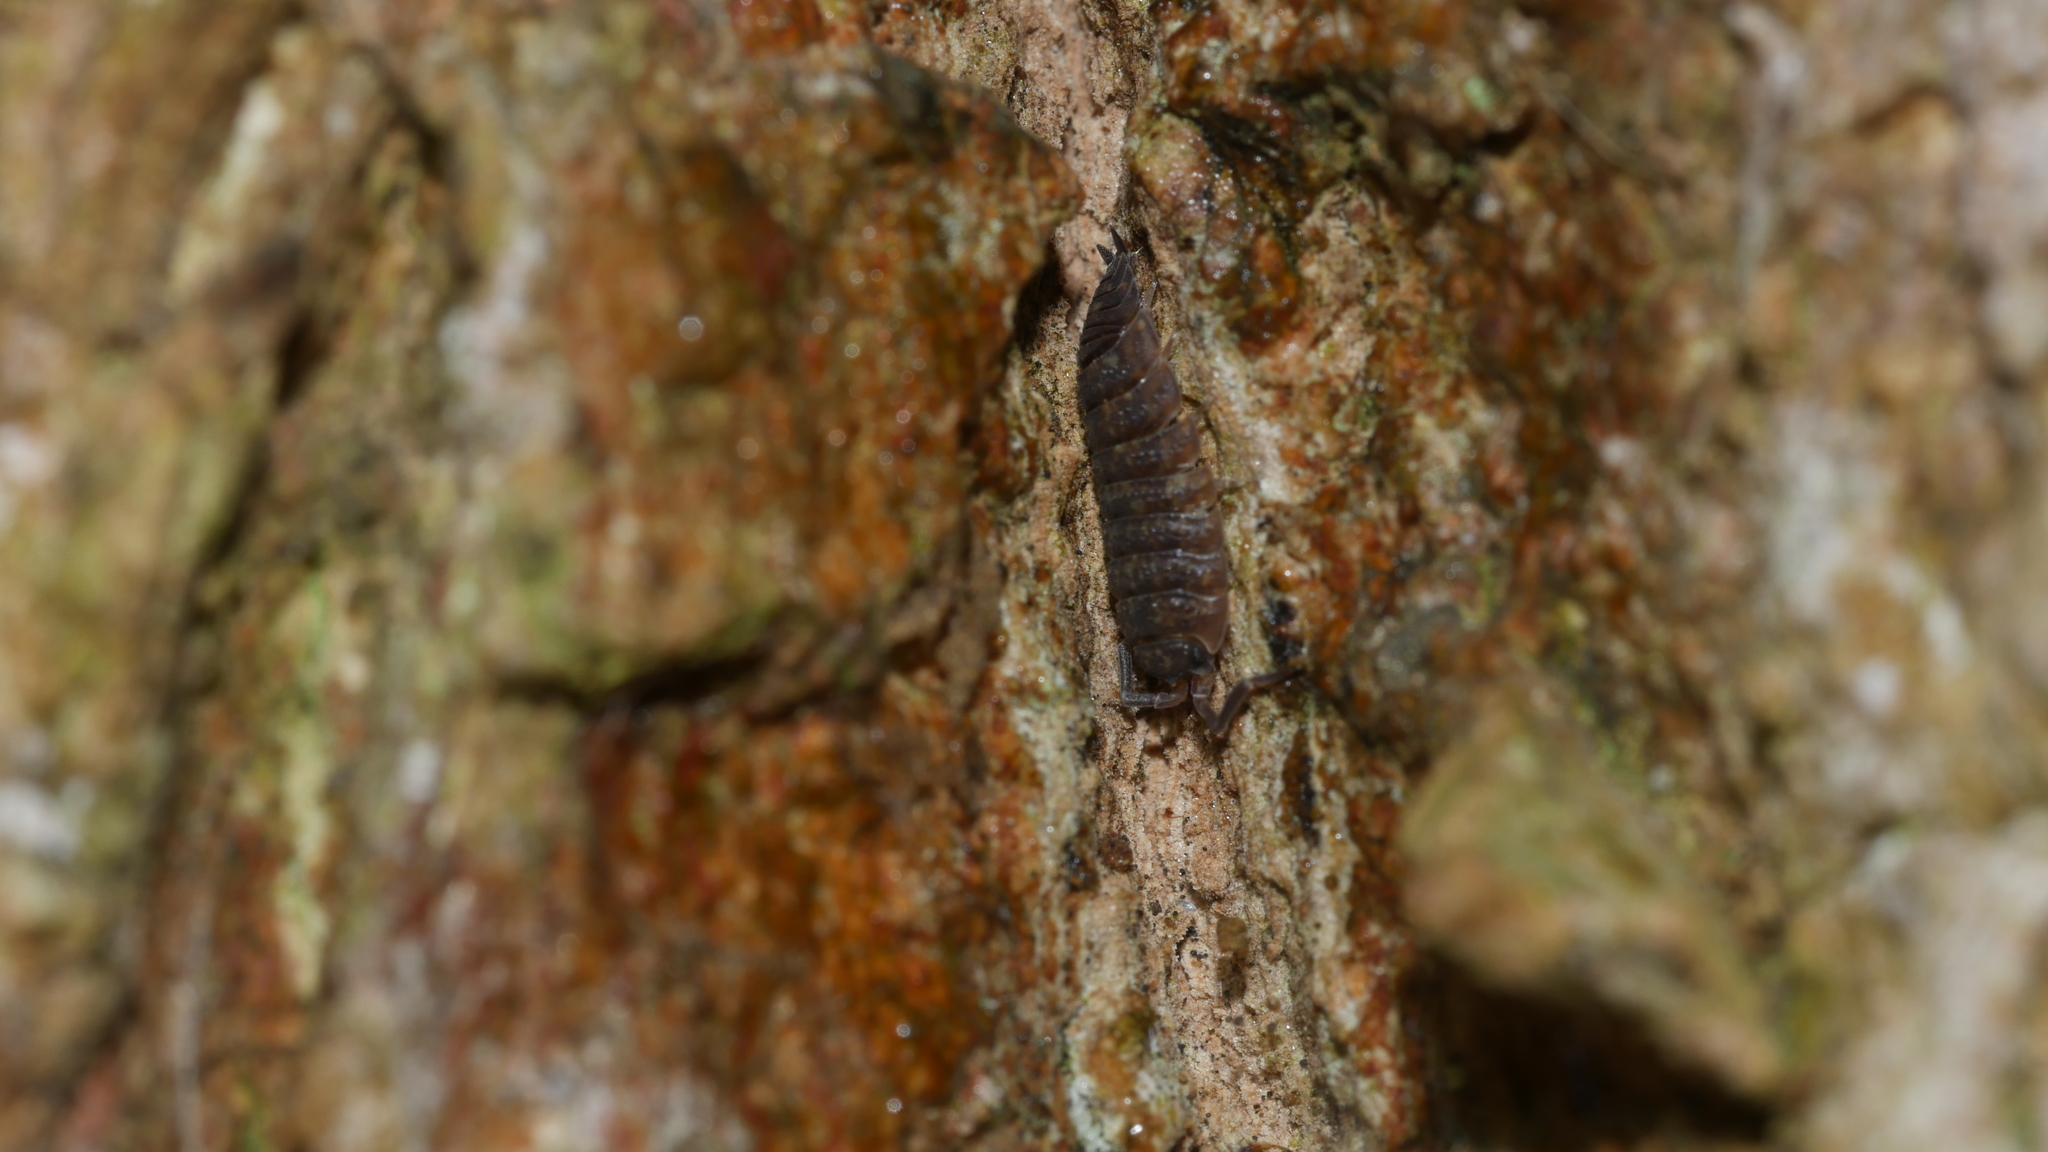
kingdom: Animalia
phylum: Arthropoda
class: Malacostraca
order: Isopoda
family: Porcellionidae
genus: Porcellio
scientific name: Porcellio scaber
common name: Common rough woodlouse
